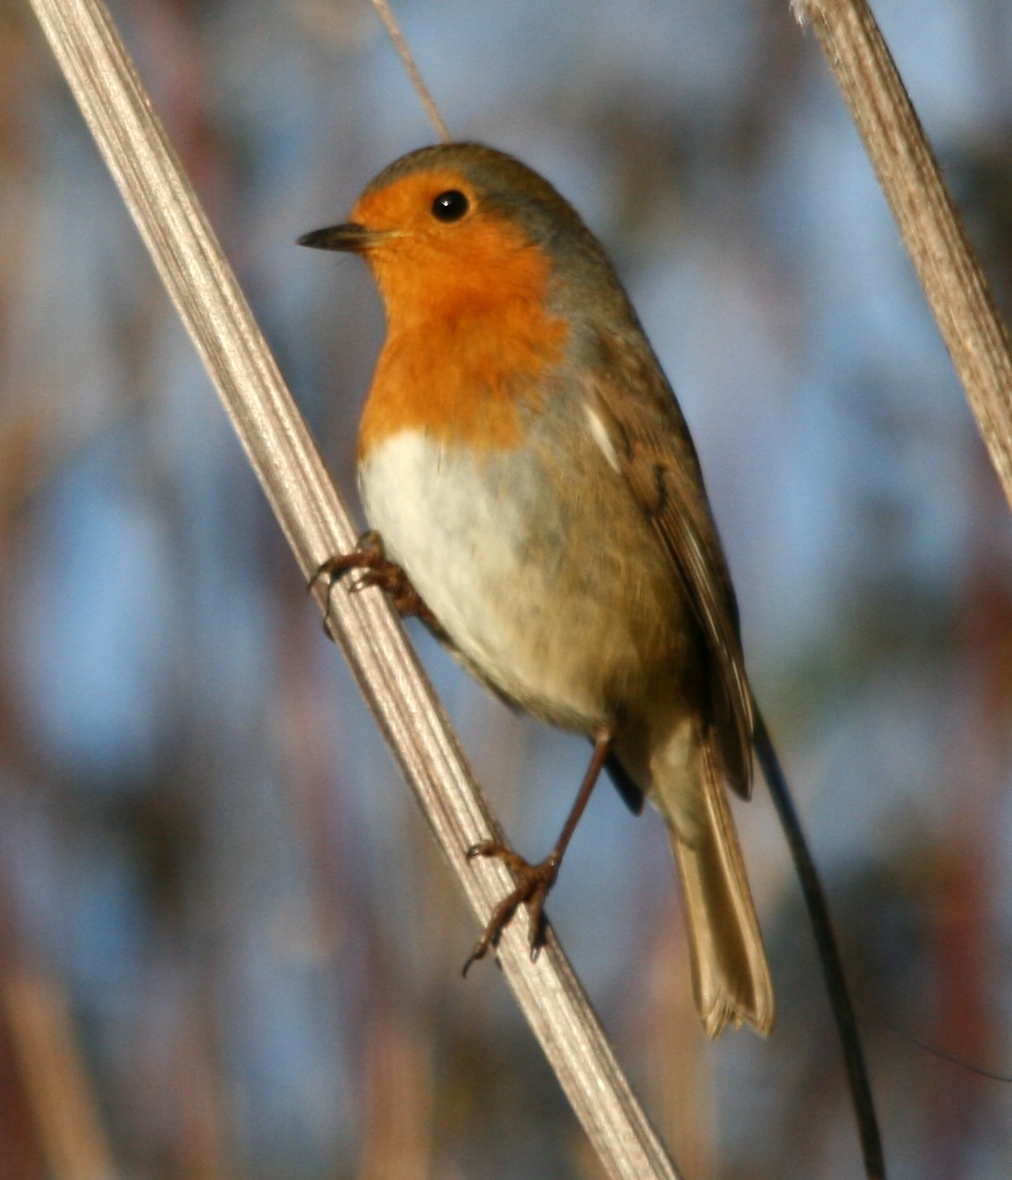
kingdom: Animalia
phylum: Chordata
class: Aves
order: Passeriformes
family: Muscicapidae
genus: Erithacus
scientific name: Erithacus rubecula
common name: European robin
